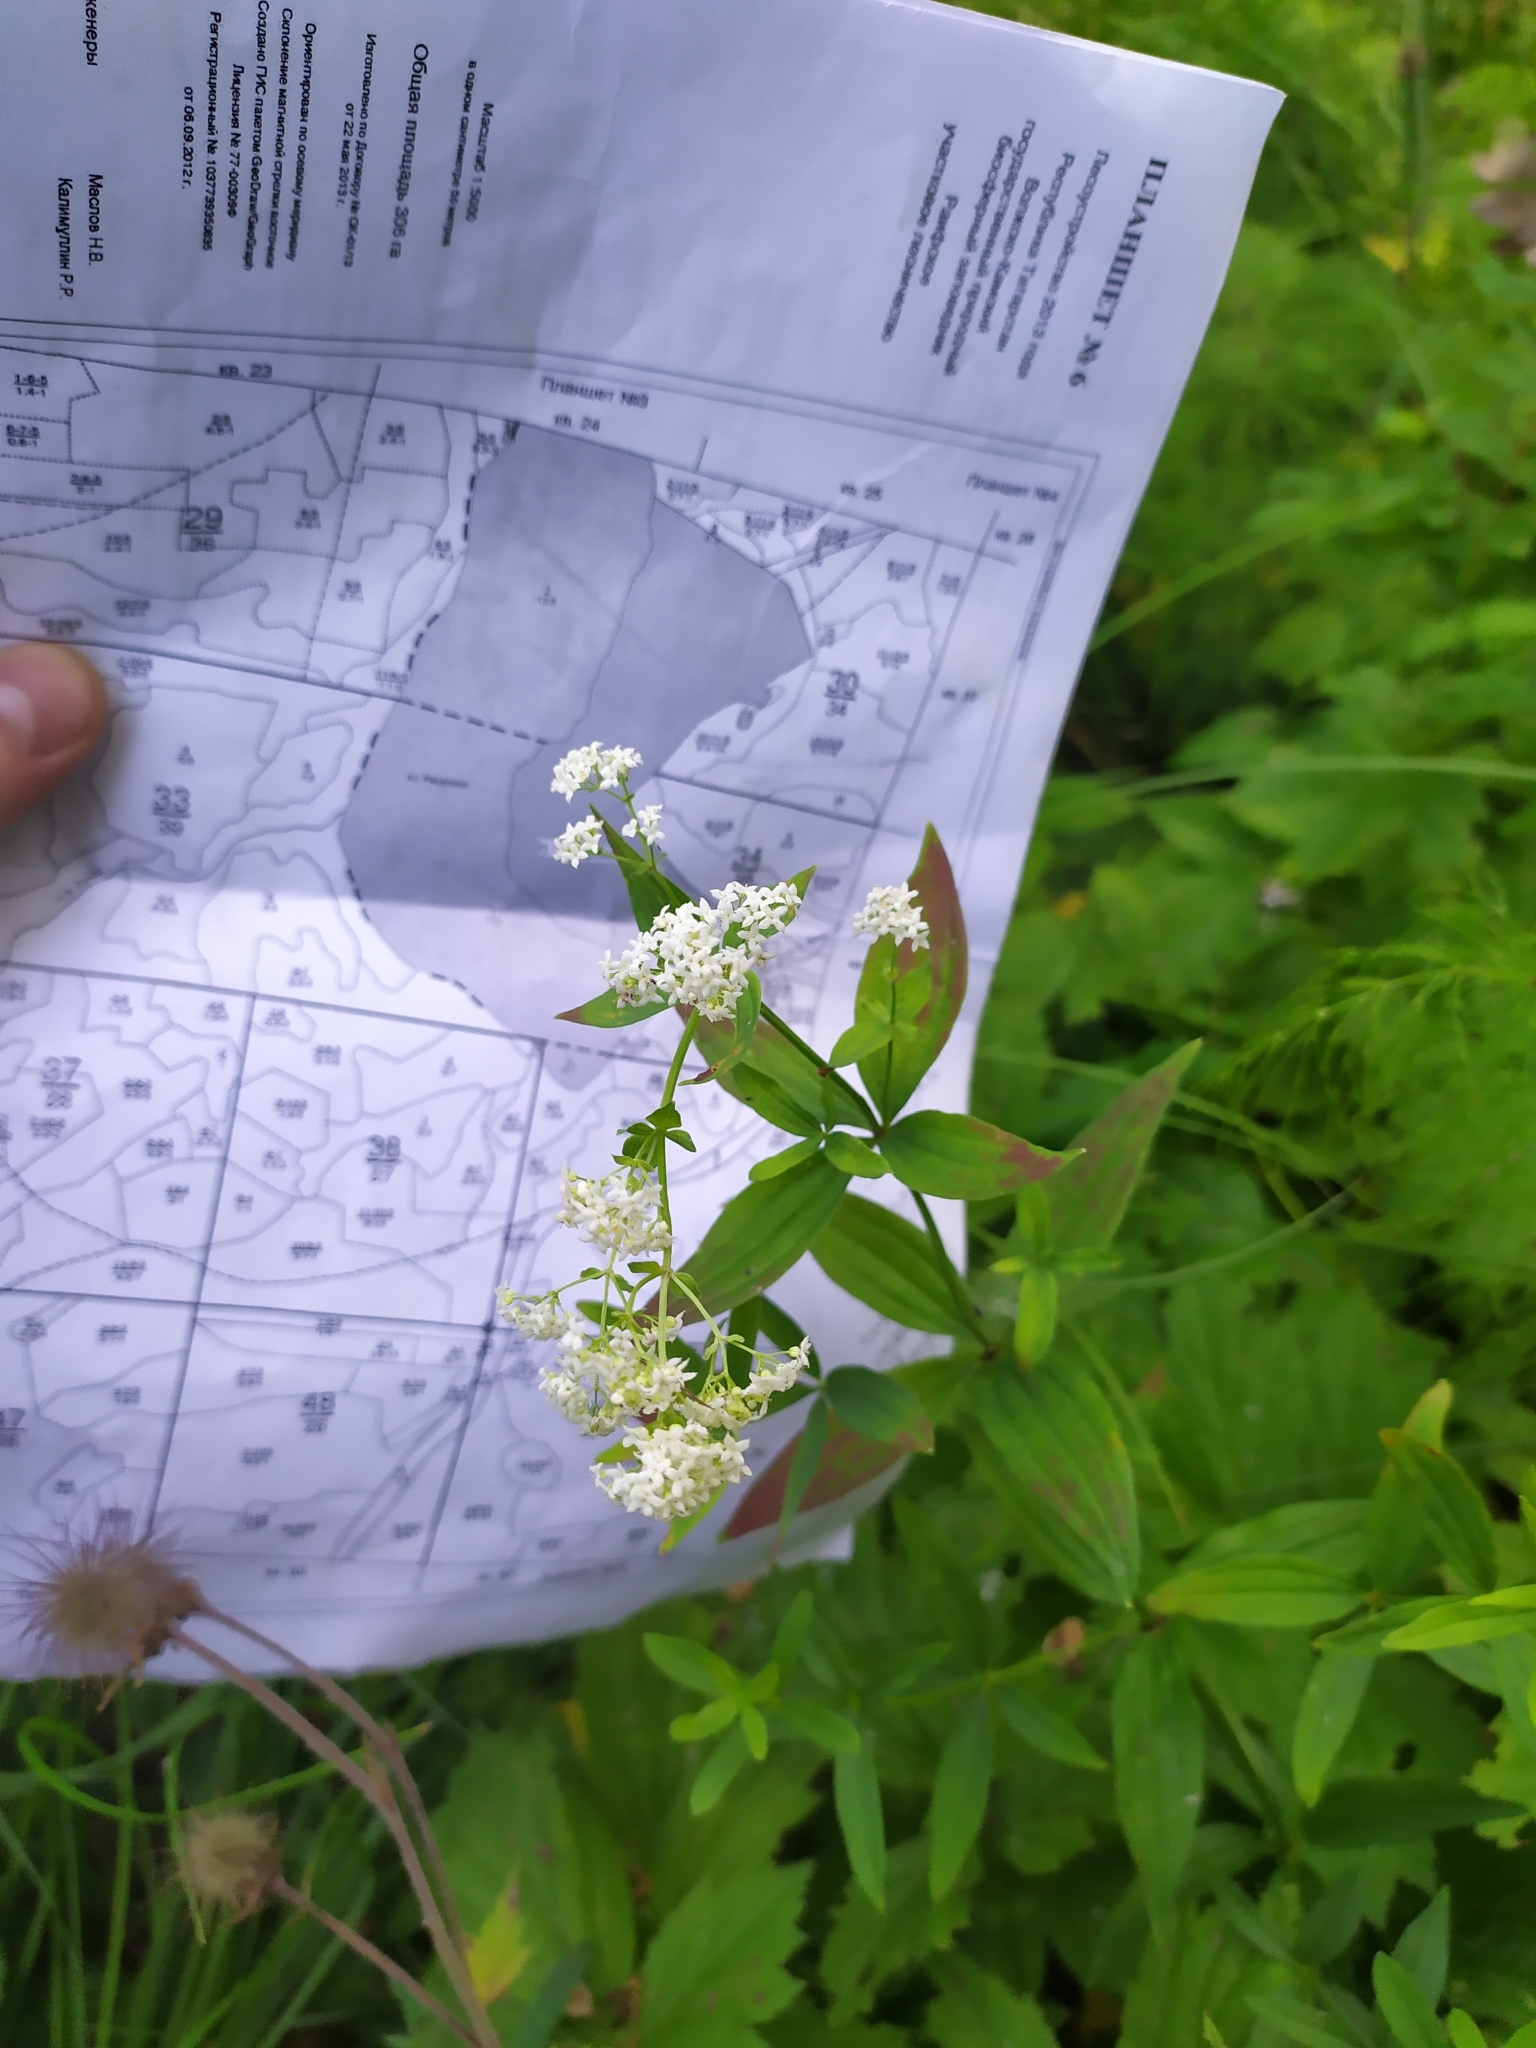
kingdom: Plantae
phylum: Tracheophyta
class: Magnoliopsida
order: Gentianales
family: Rubiaceae
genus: Galium
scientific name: Galium rubioides
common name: European bedstraw
